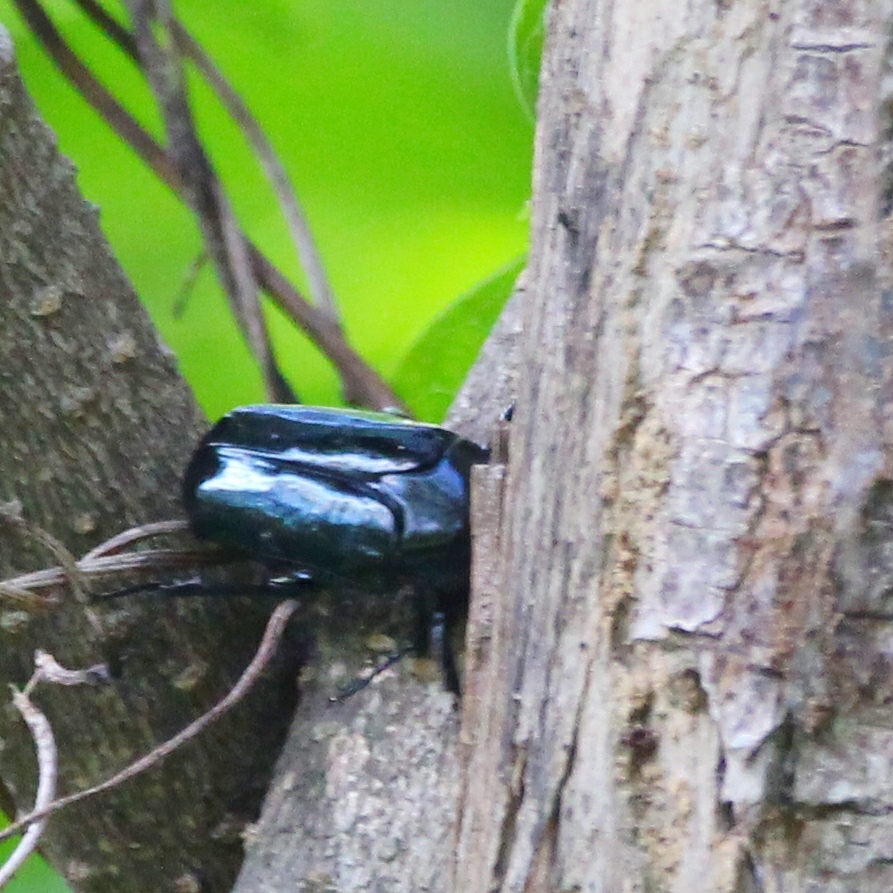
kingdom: Animalia
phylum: Arthropoda
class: Insecta
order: Coleoptera
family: Scarabaeidae
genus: Macronota
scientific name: Macronota shangaicus
